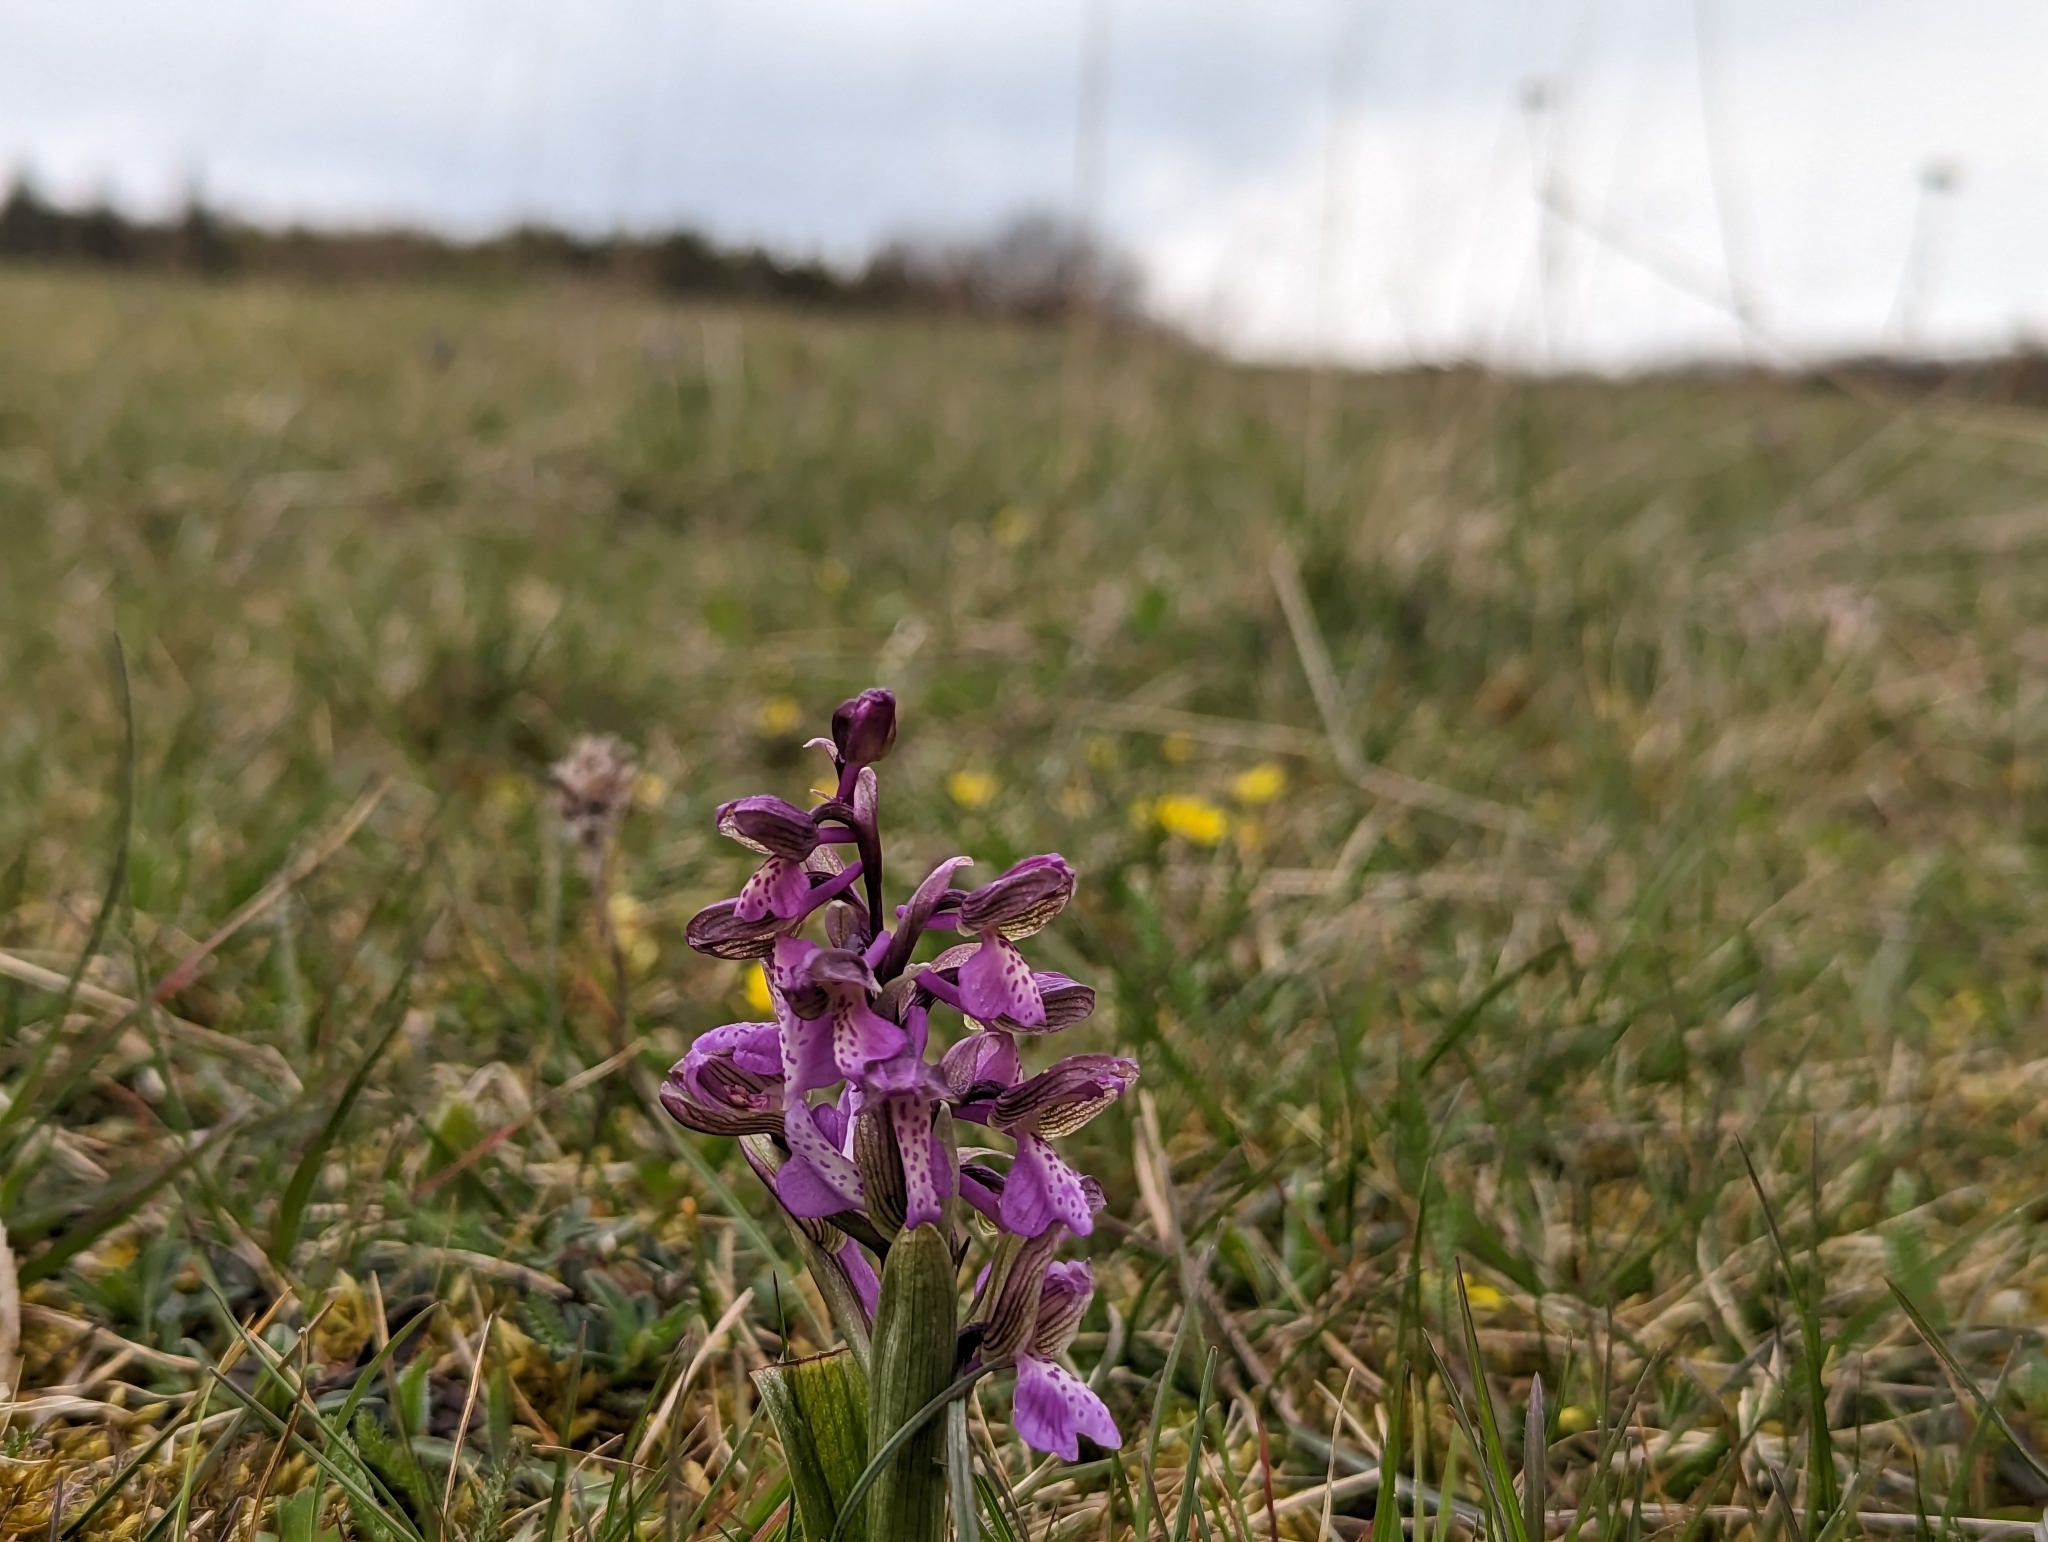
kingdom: Plantae
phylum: Tracheophyta
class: Liliopsida
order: Asparagales
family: Orchidaceae
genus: Anacamptis
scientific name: Anacamptis morio
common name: Green-winged orchid
